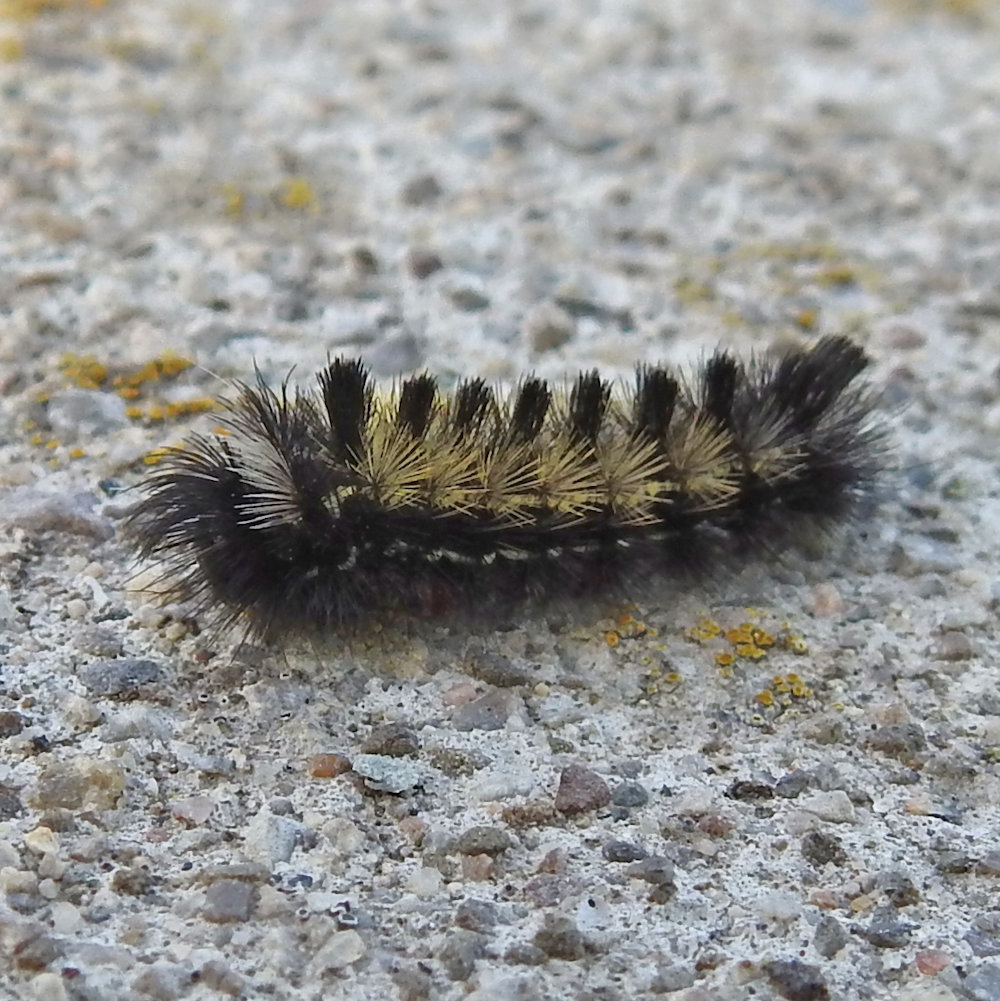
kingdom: Animalia
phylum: Arthropoda
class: Insecta
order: Lepidoptera
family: Erebidae
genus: Ctenucha
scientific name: Ctenucha virginica
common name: Virginia ctenucha moth
